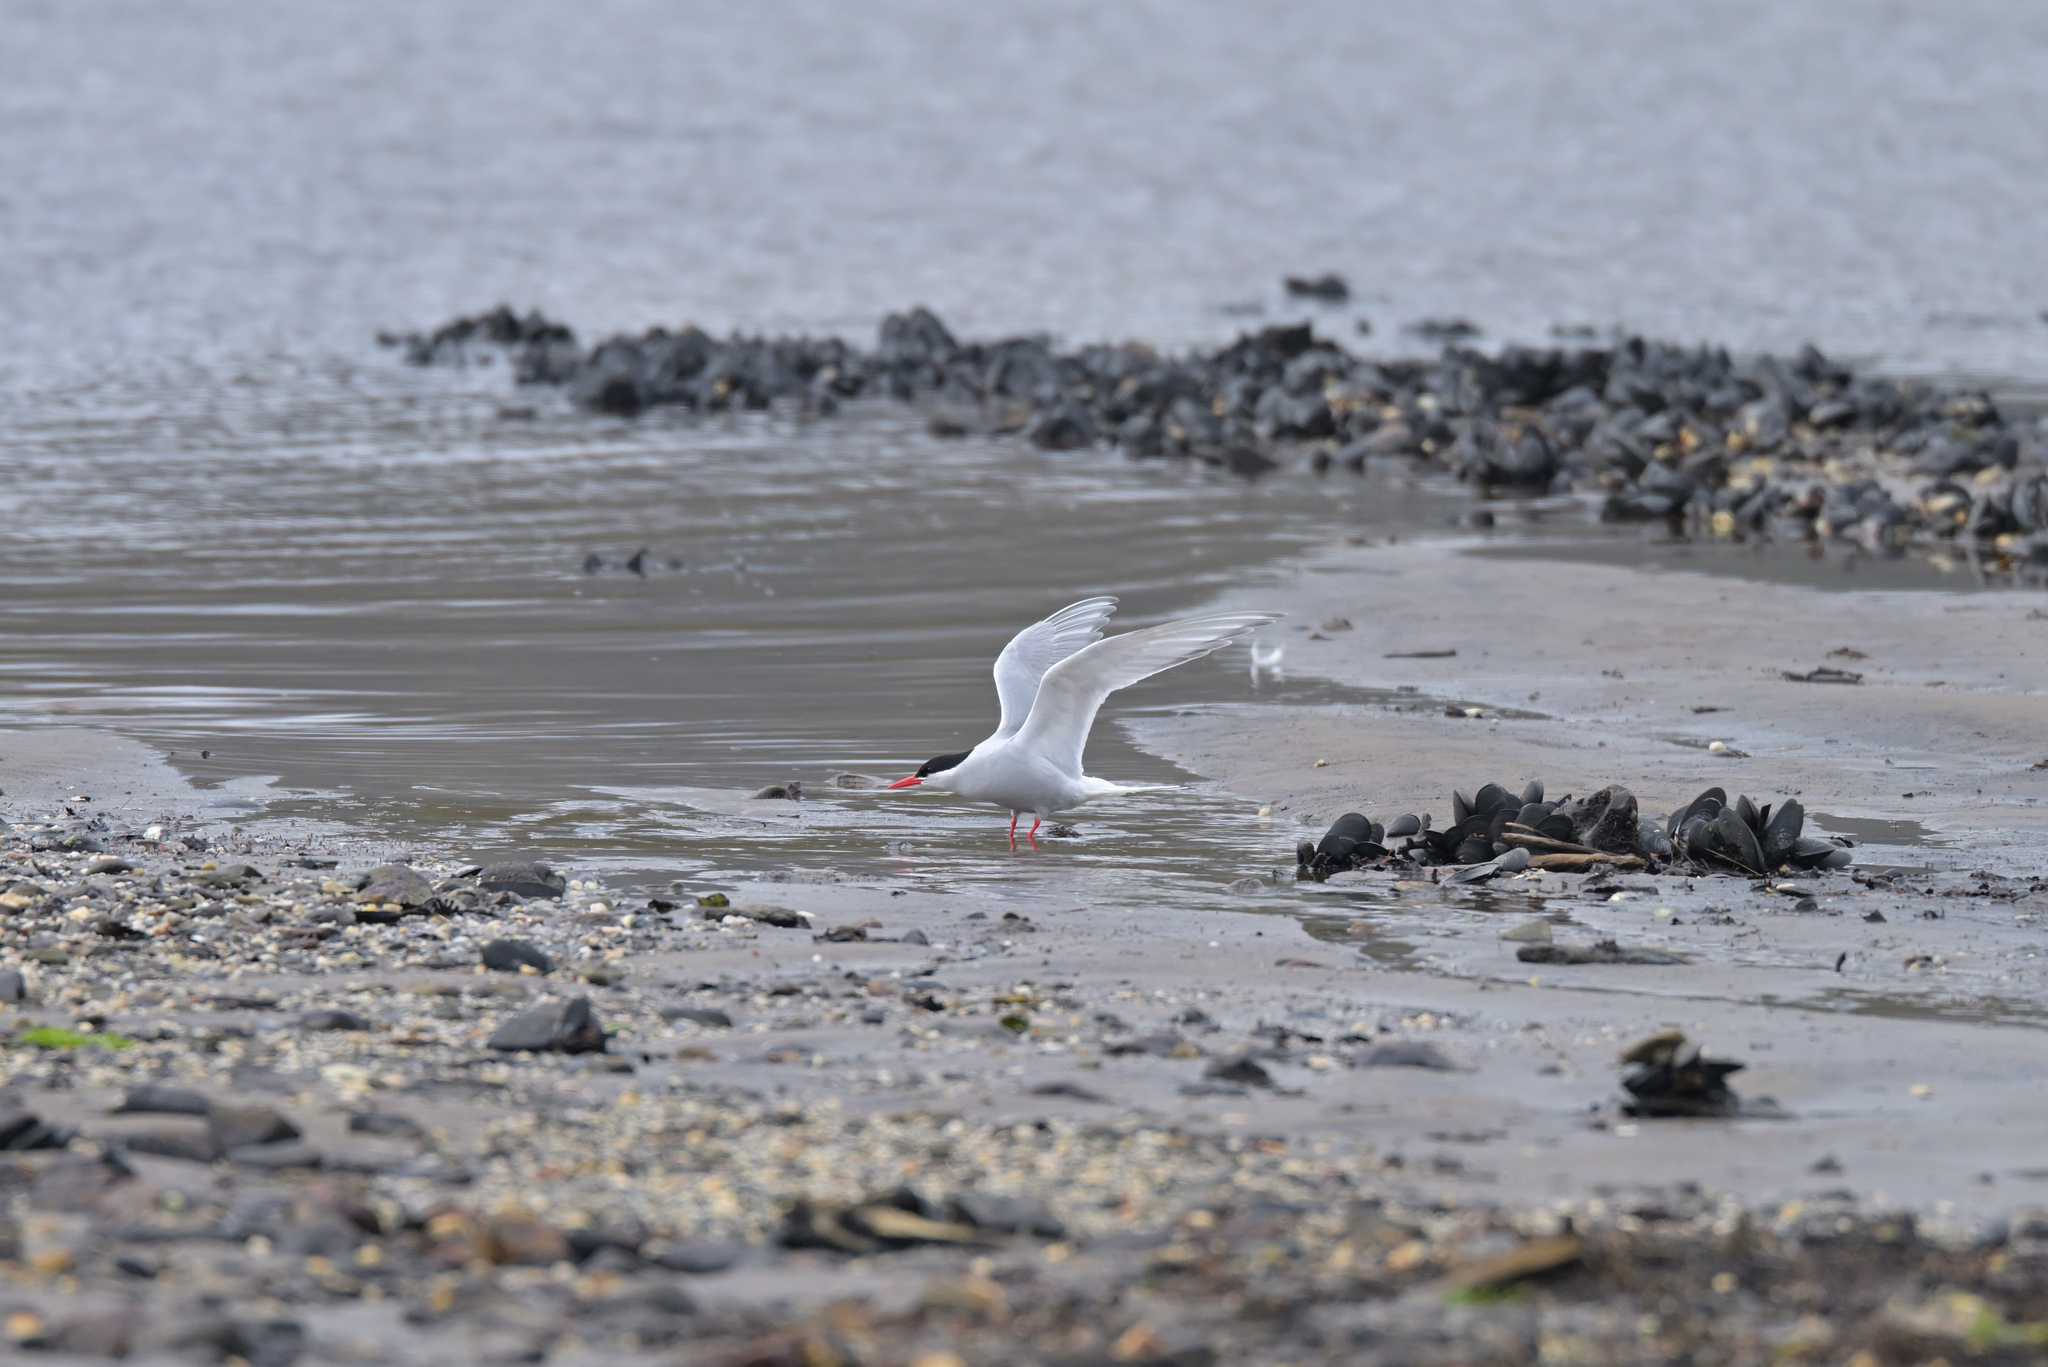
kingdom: Animalia
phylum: Chordata
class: Aves
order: Charadriiformes
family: Laridae
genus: Sterna
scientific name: Sterna vittata
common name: Antarctic tern
